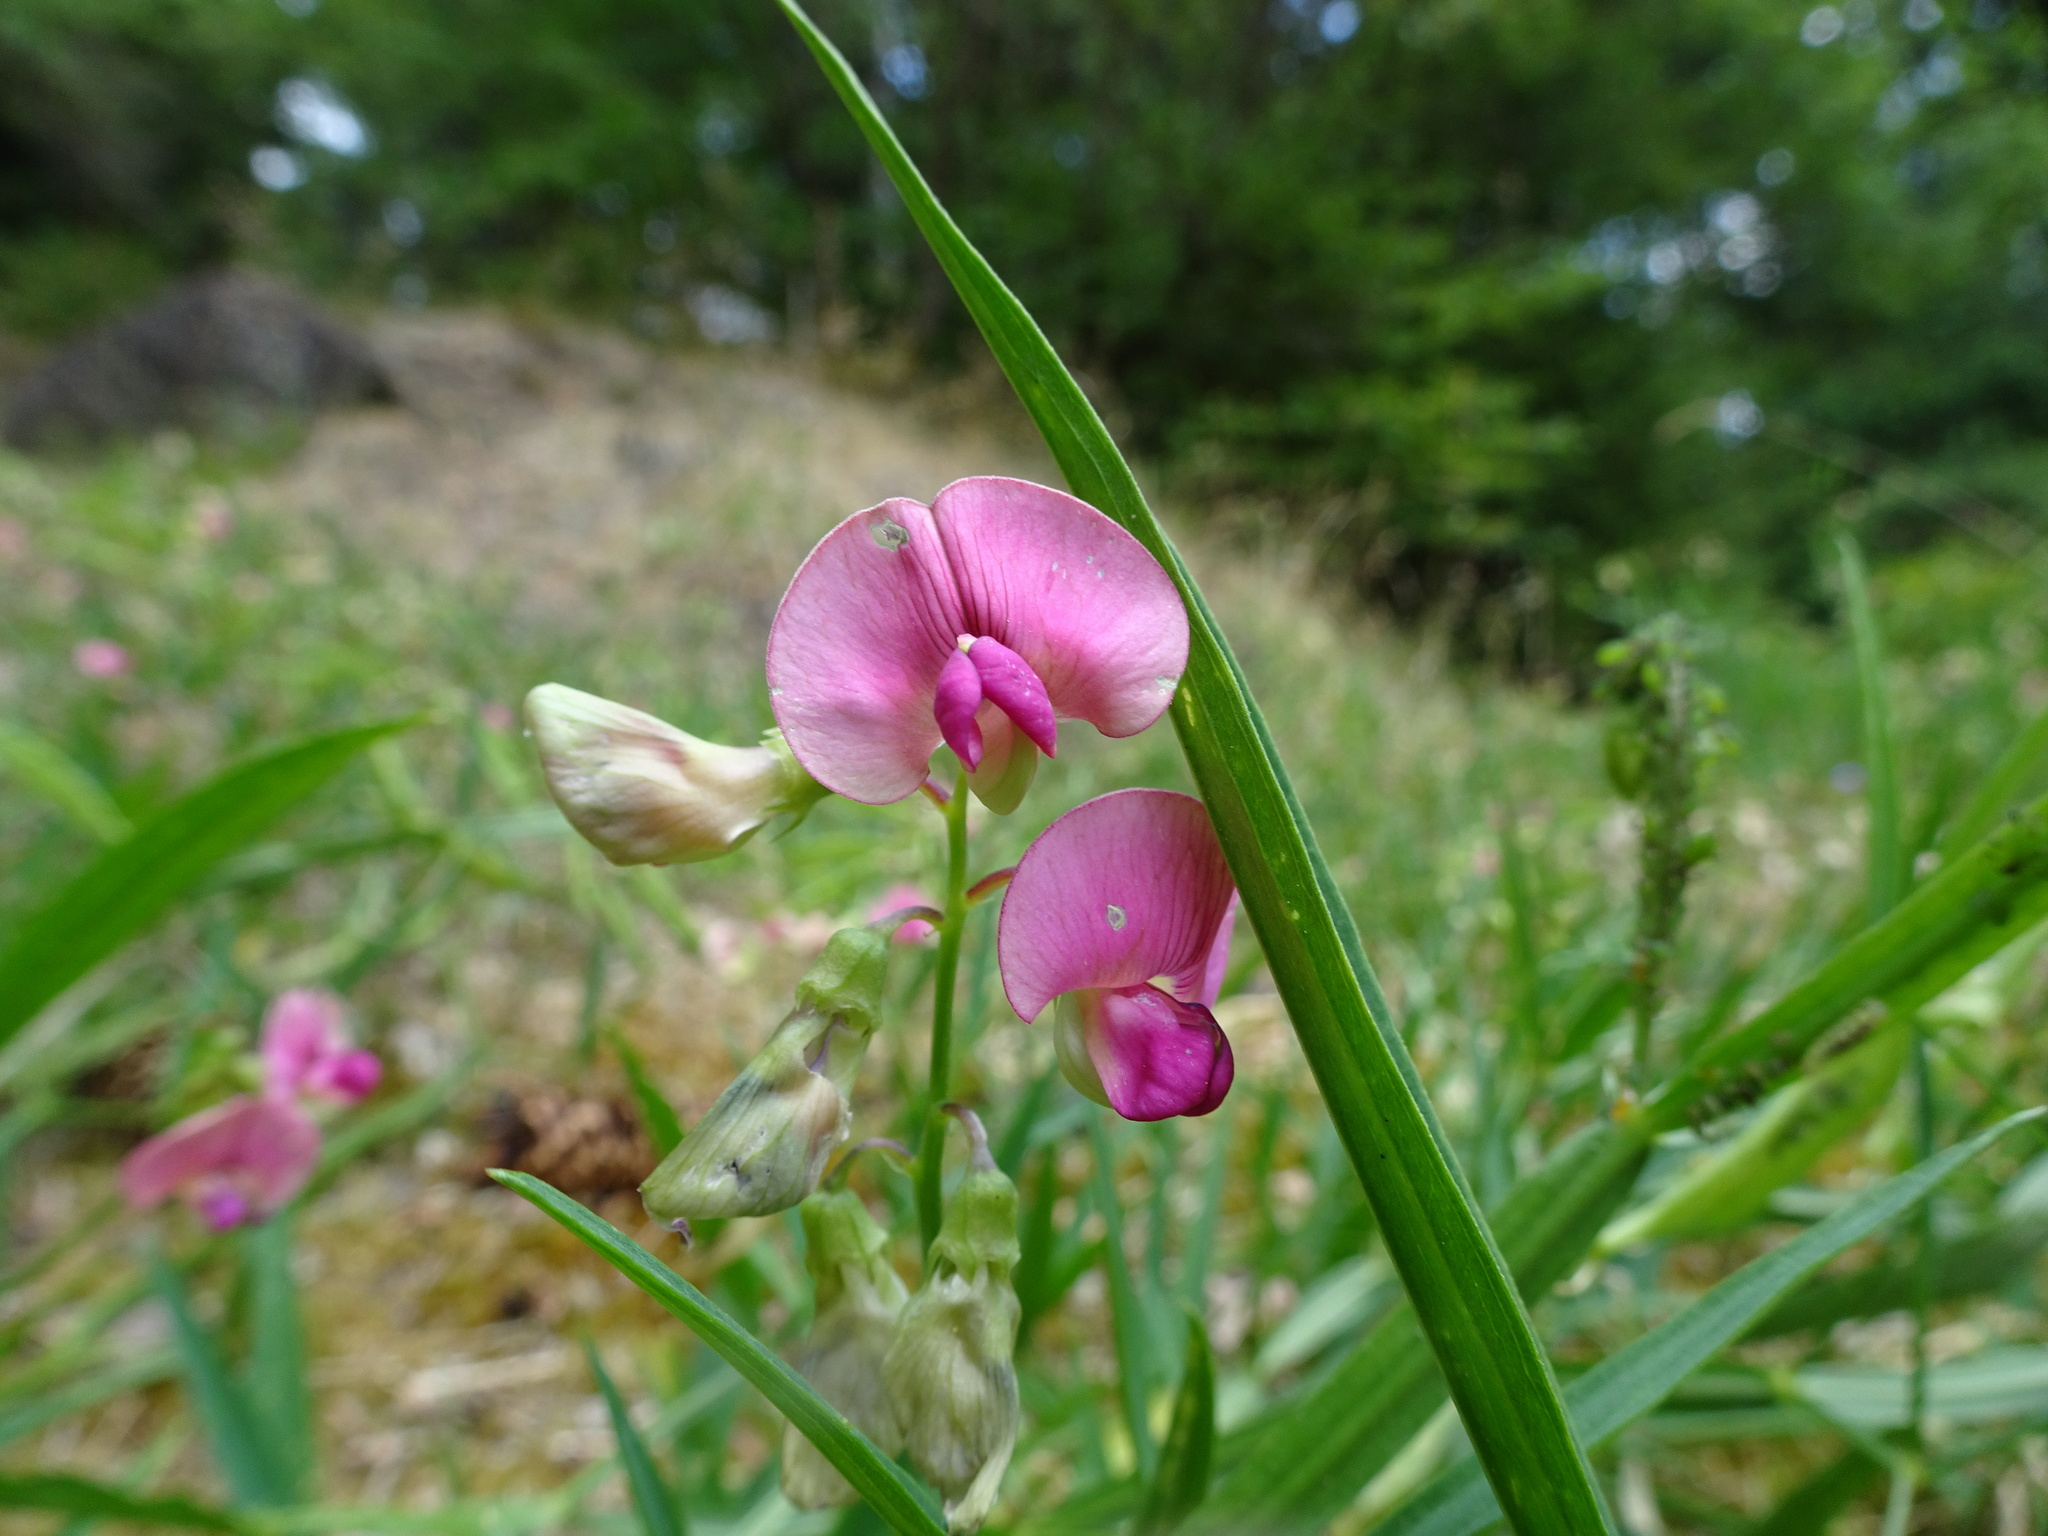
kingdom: Plantae
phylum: Tracheophyta
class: Magnoliopsida
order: Fabales
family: Fabaceae
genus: Lathyrus
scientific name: Lathyrus sylvestris
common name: Flat pea
